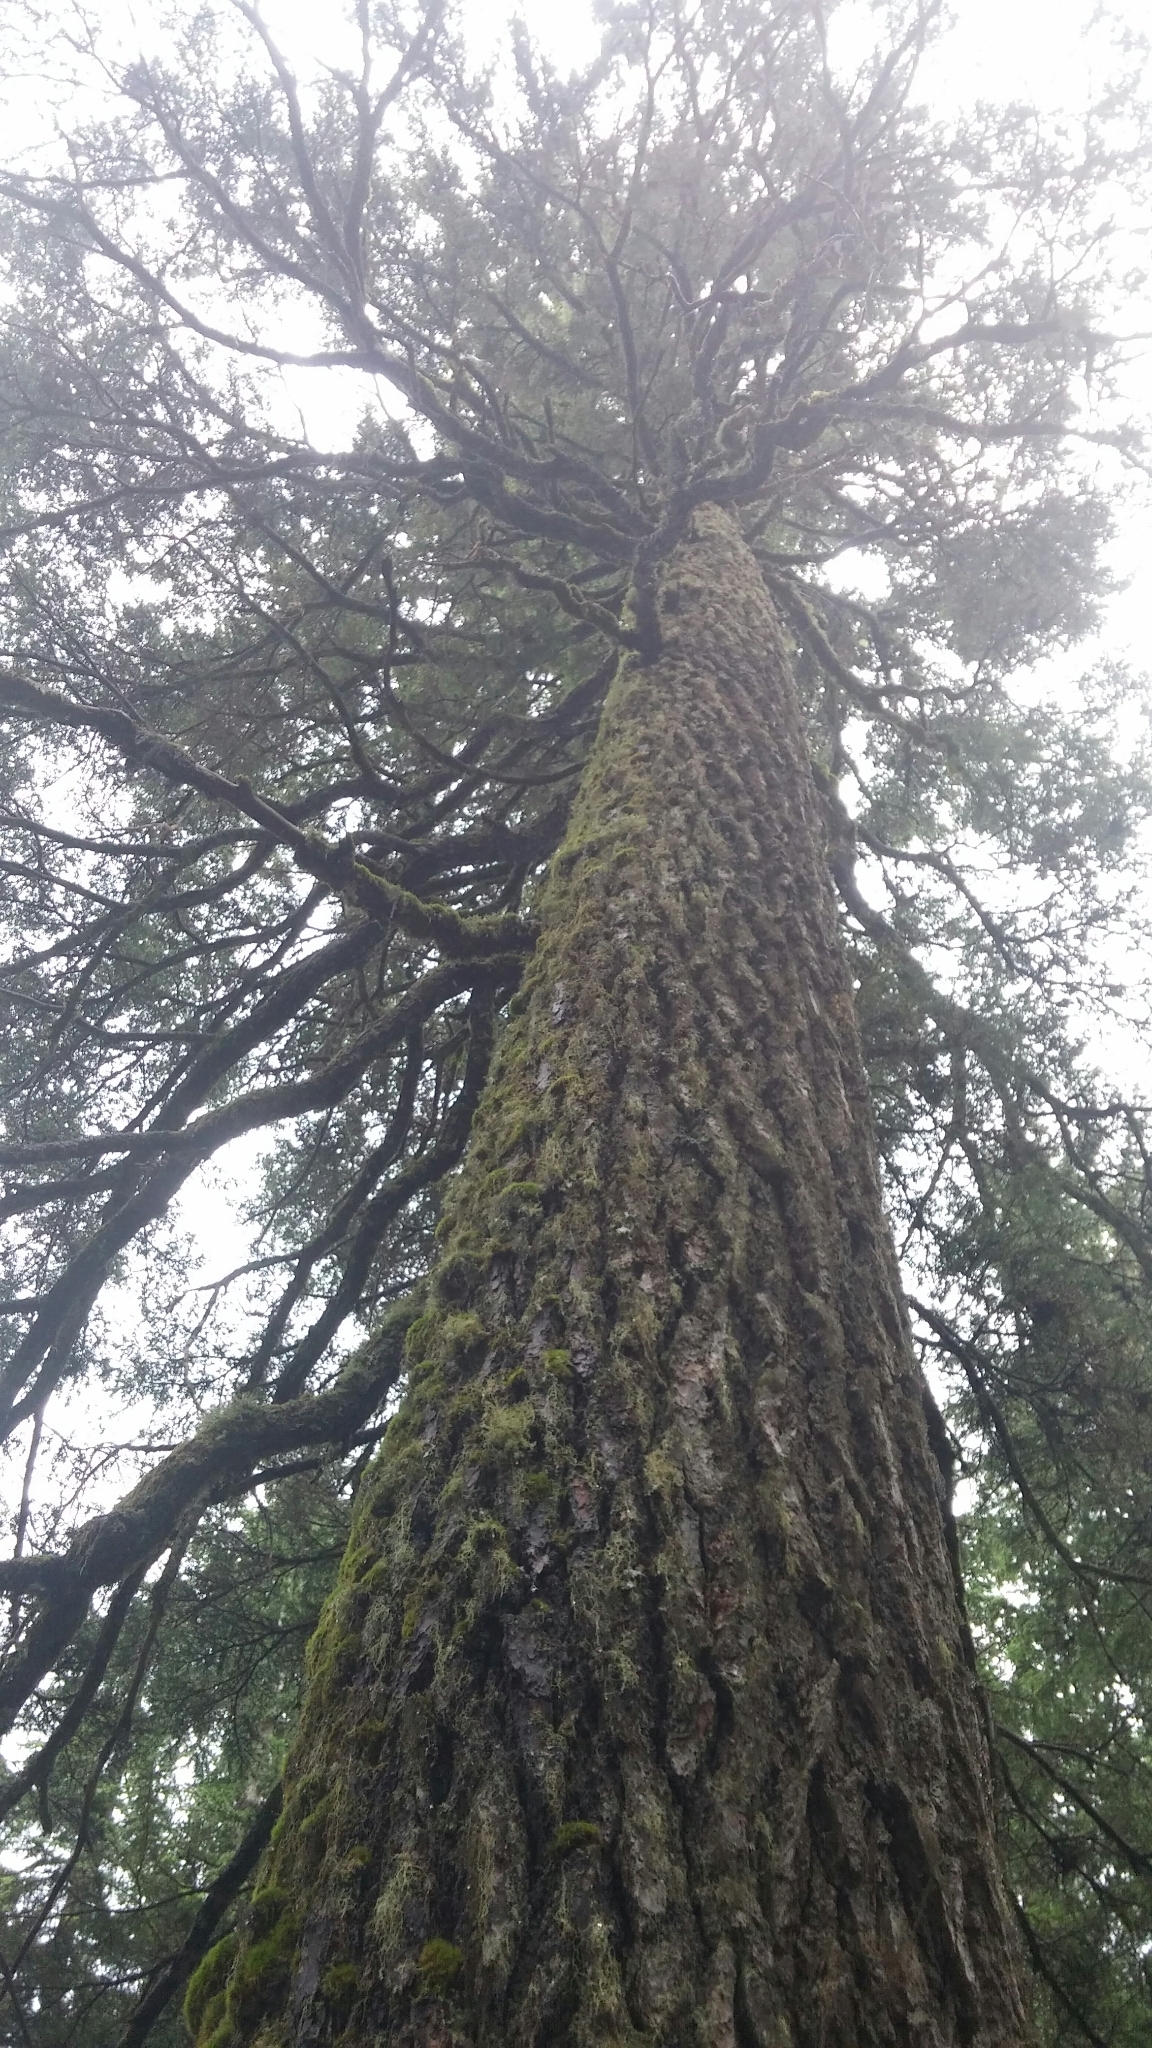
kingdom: Plantae
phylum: Tracheophyta
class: Pinopsida
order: Pinales
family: Pinaceae
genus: Pseudotsuga
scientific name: Pseudotsuga menziesii
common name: Douglas fir
